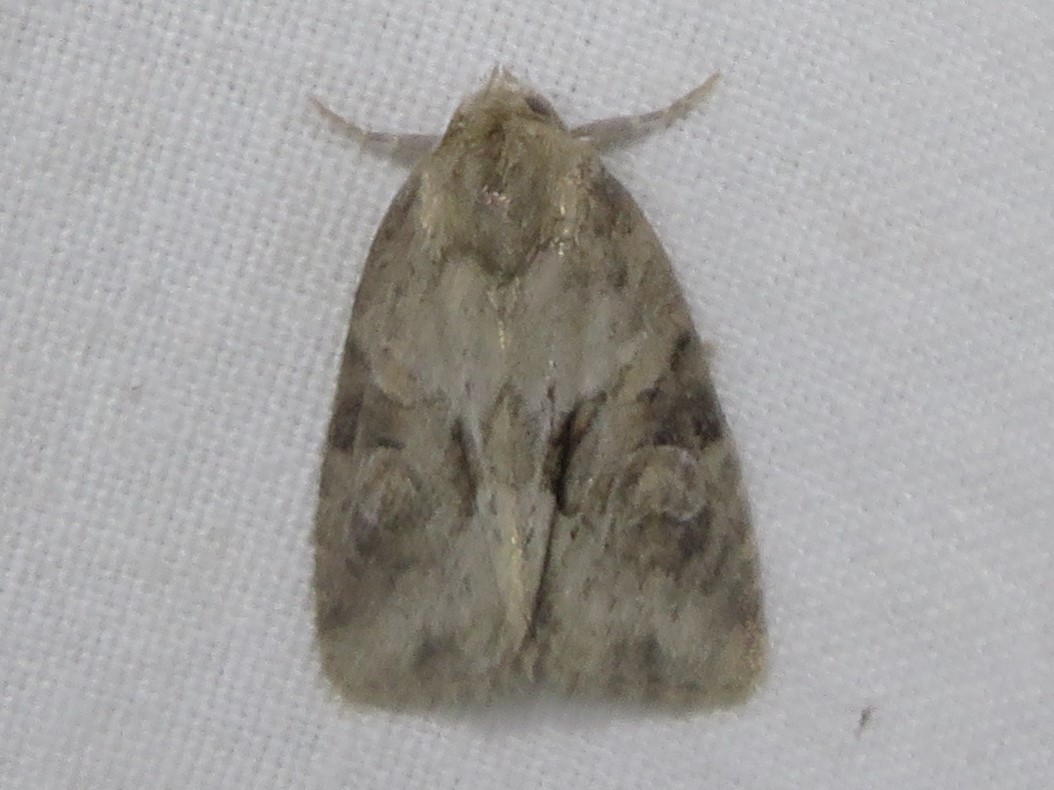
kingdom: Animalia
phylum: Arthropoda
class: Insecta
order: Lepidoptera
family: Noctuidae
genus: Neoligia
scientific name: Neoligia exhausta
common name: Exhausted brocade
